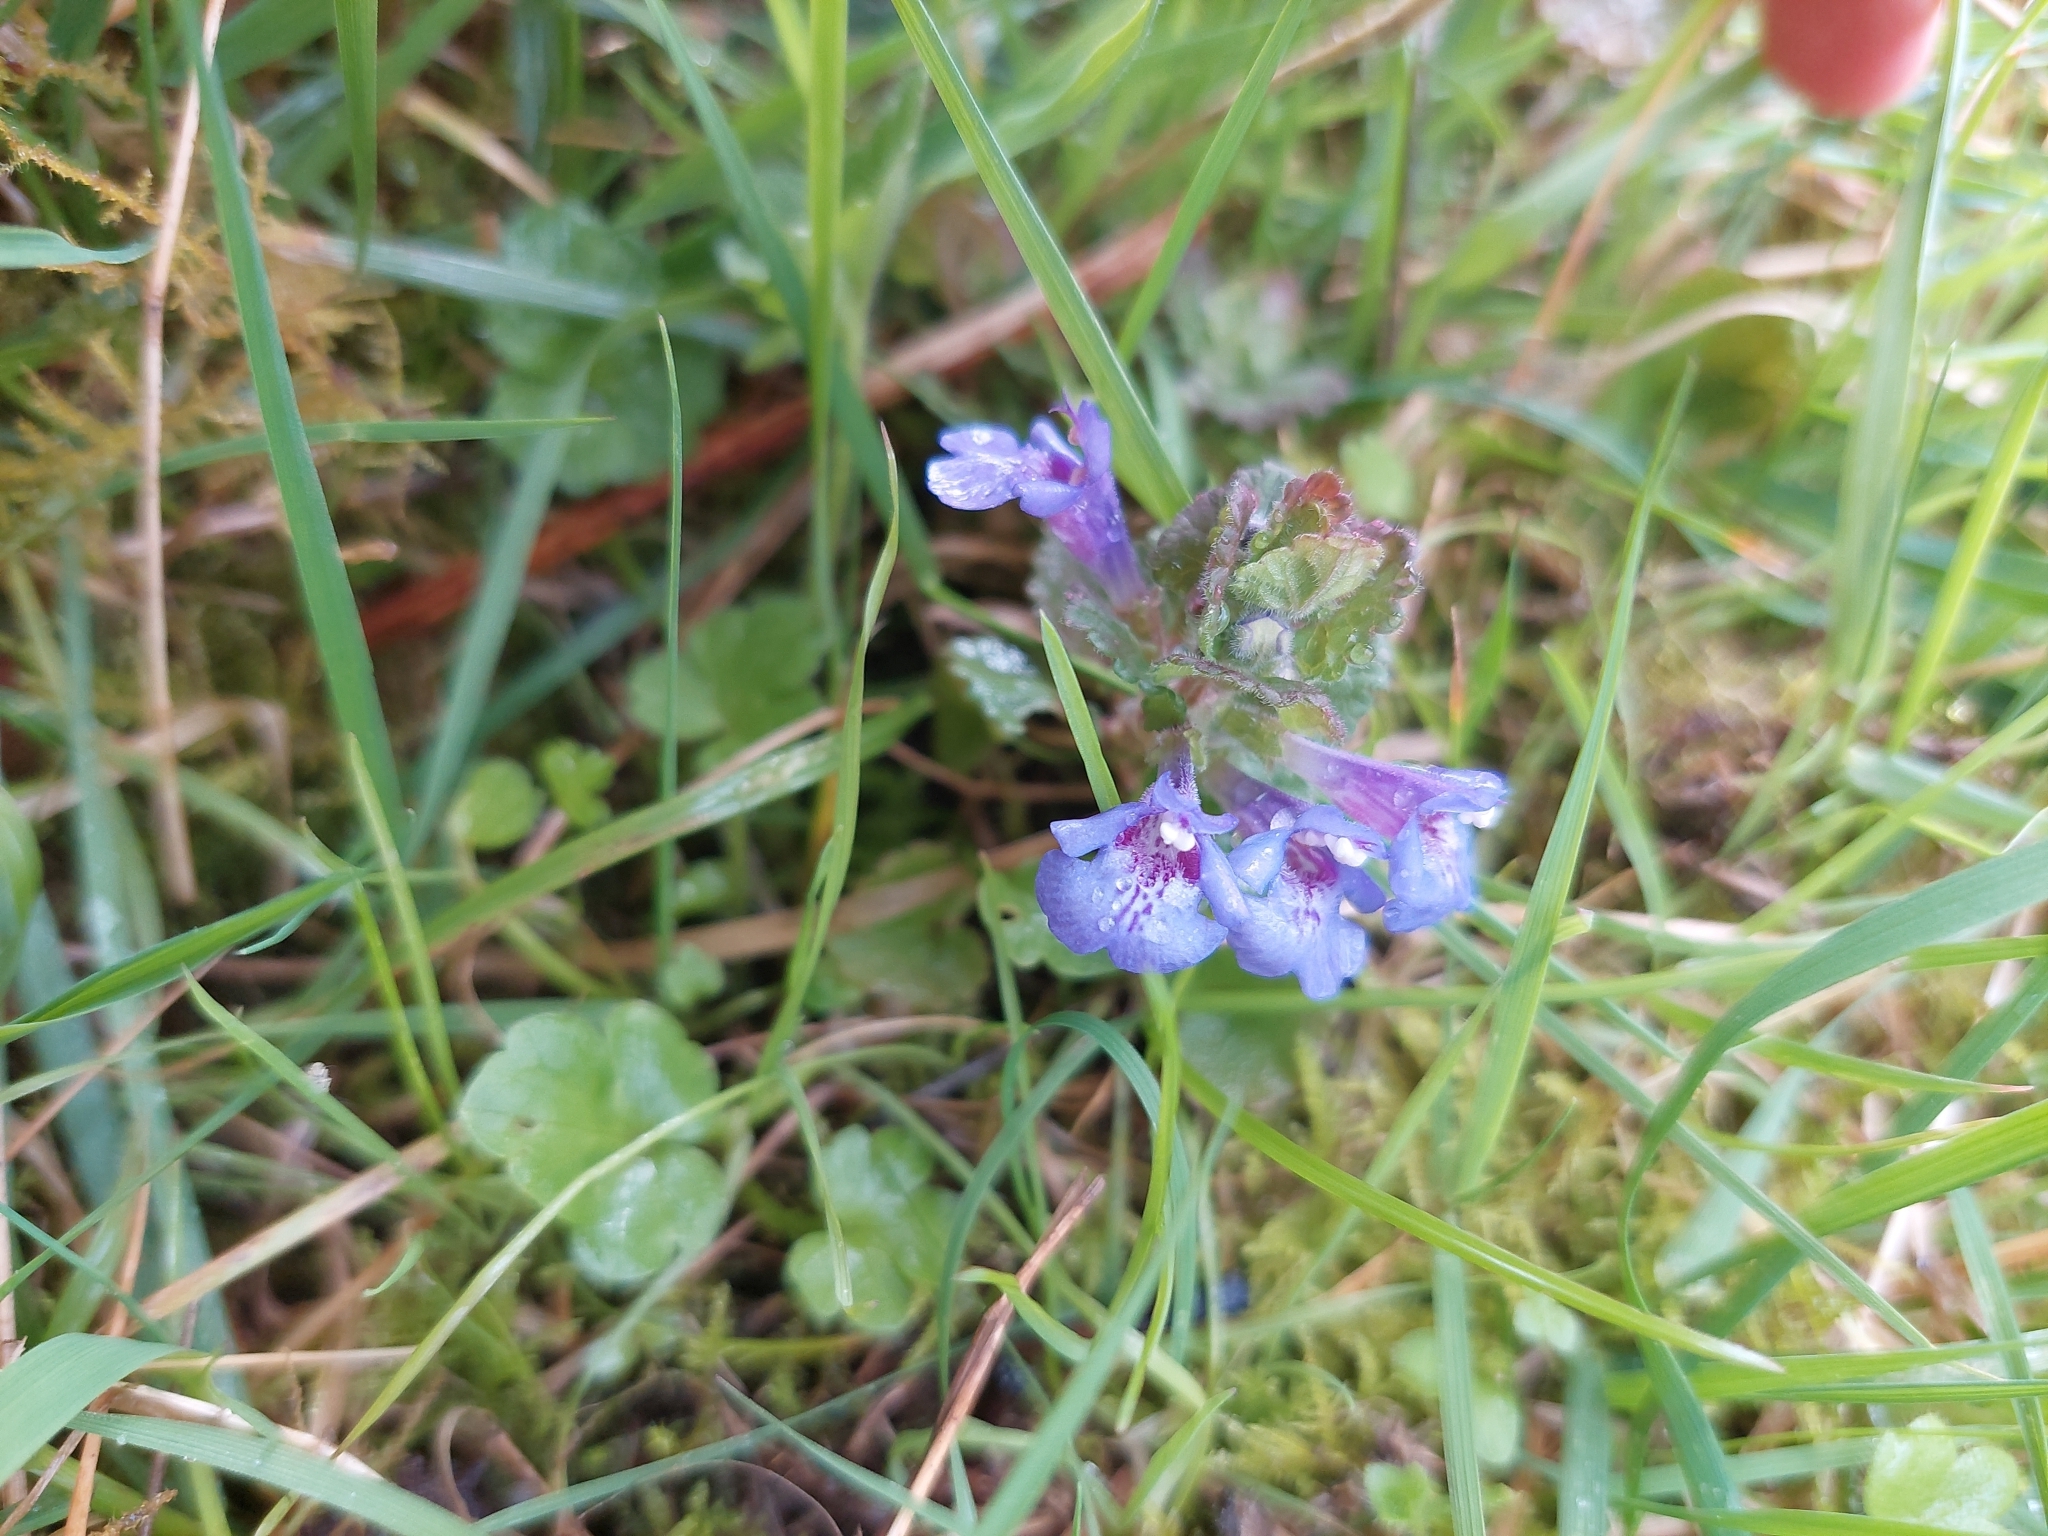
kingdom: Plantae
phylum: Tracheophyta
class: Magnoliopsida
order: Lamiales
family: Lamiaceae
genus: Glechoma
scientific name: Glechoma hederacea
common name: Ground ivy
